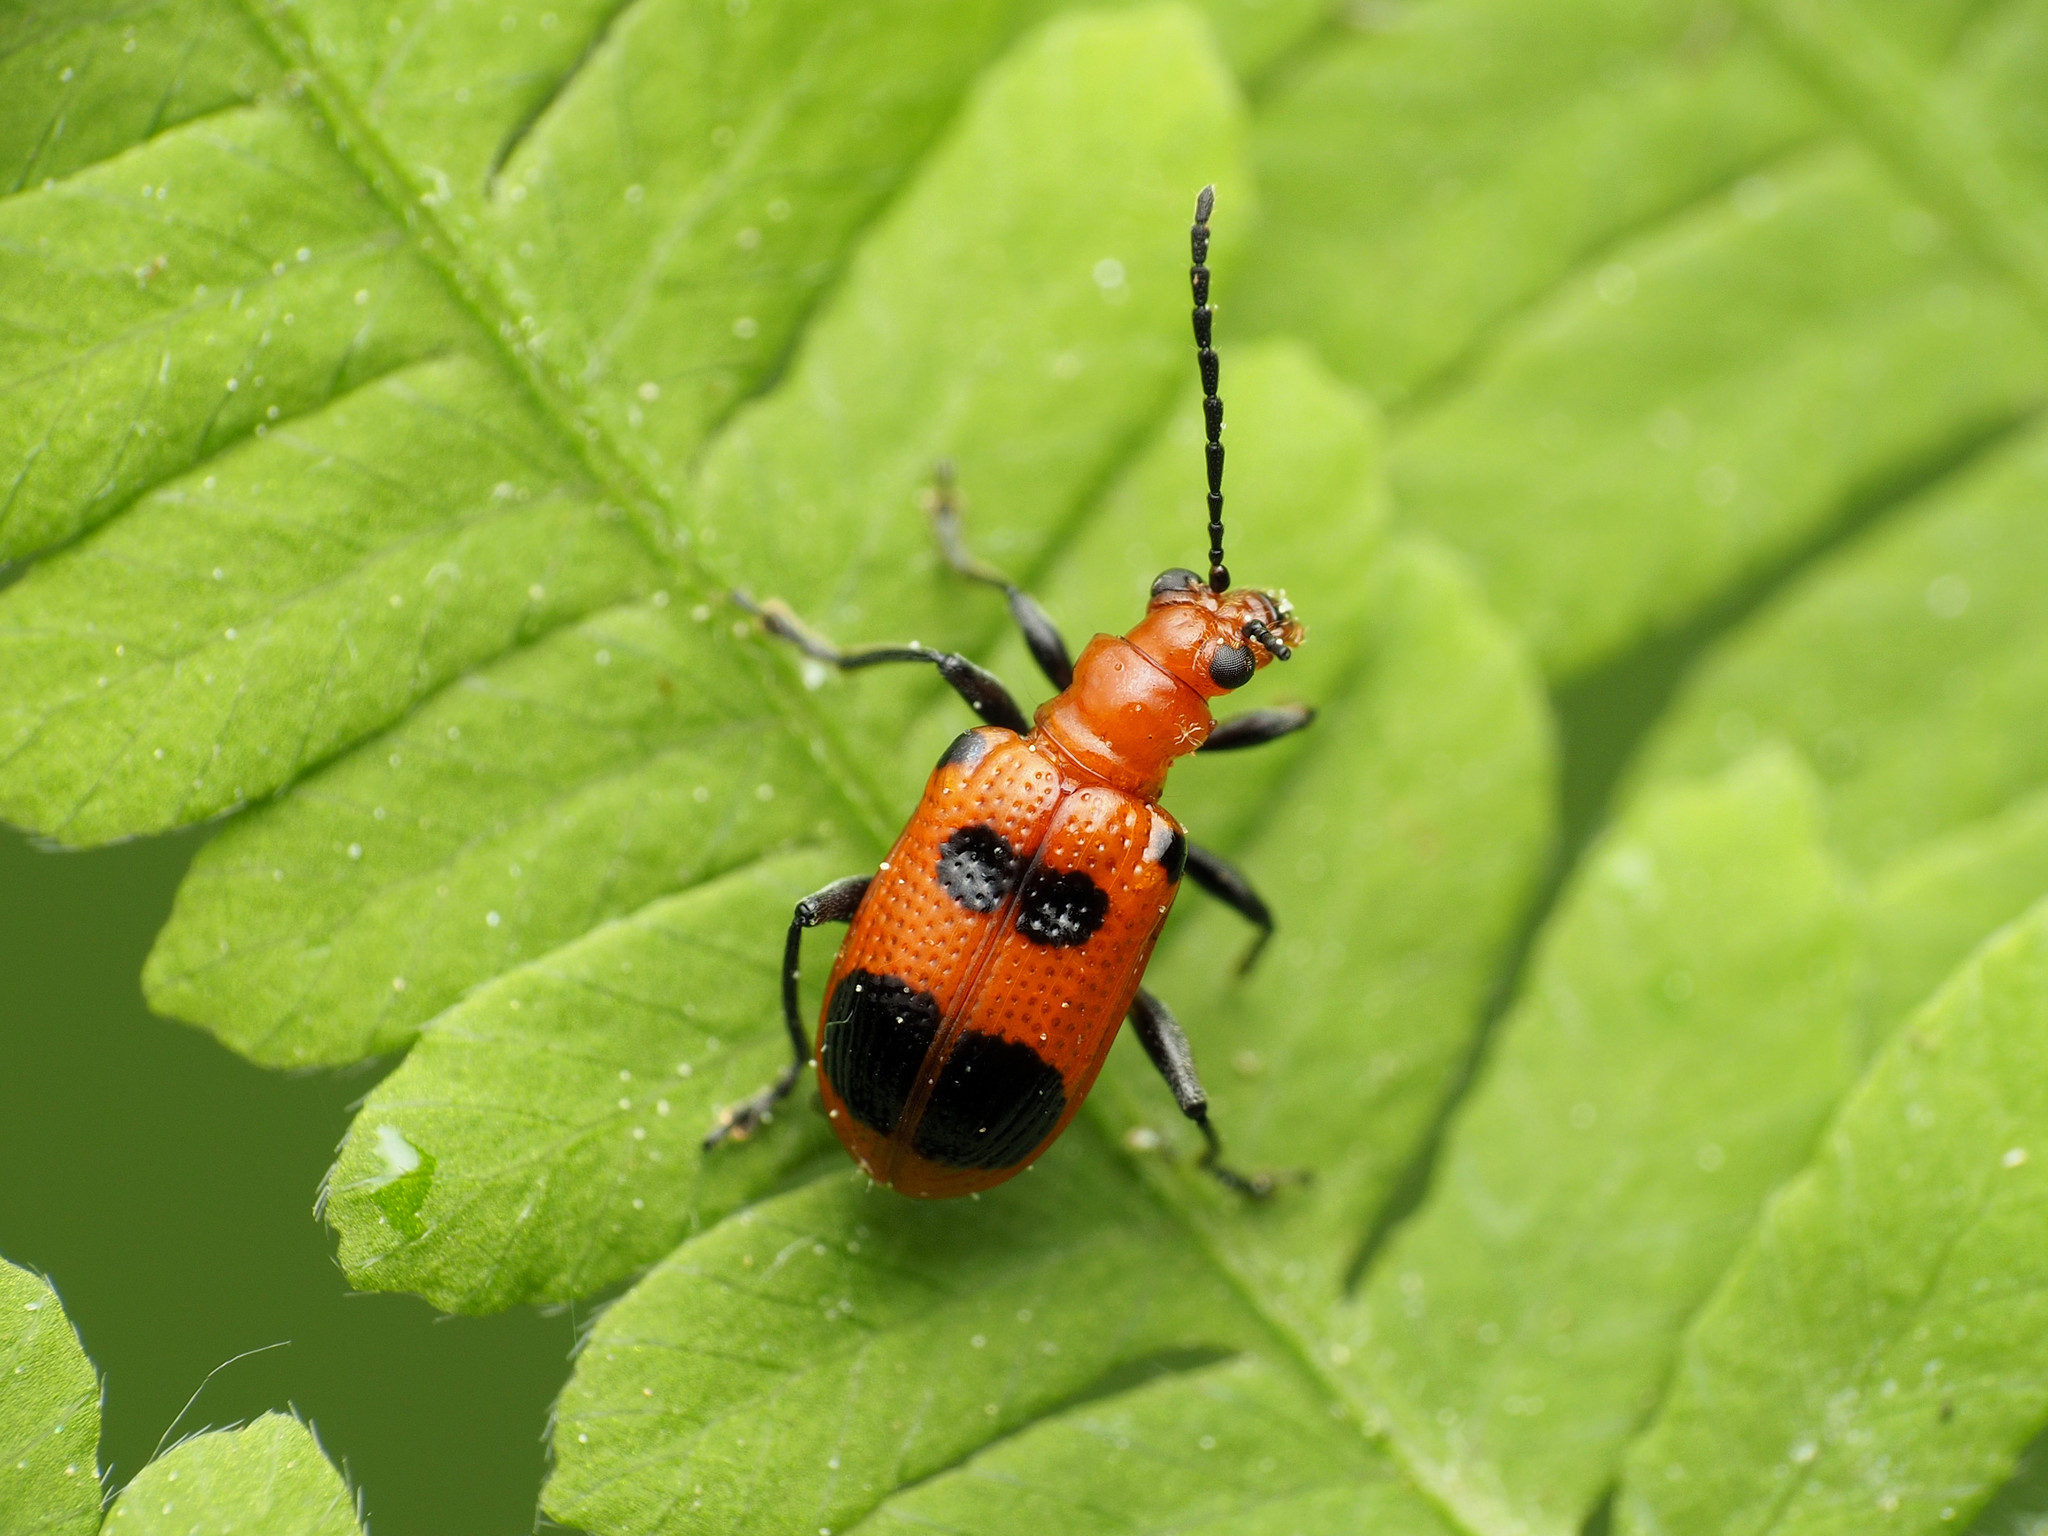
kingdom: Animalia
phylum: Arthropoda
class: Insecta
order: Coleoptera
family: Chrysomelidae
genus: Neolema
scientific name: Neolema sexpunctata
